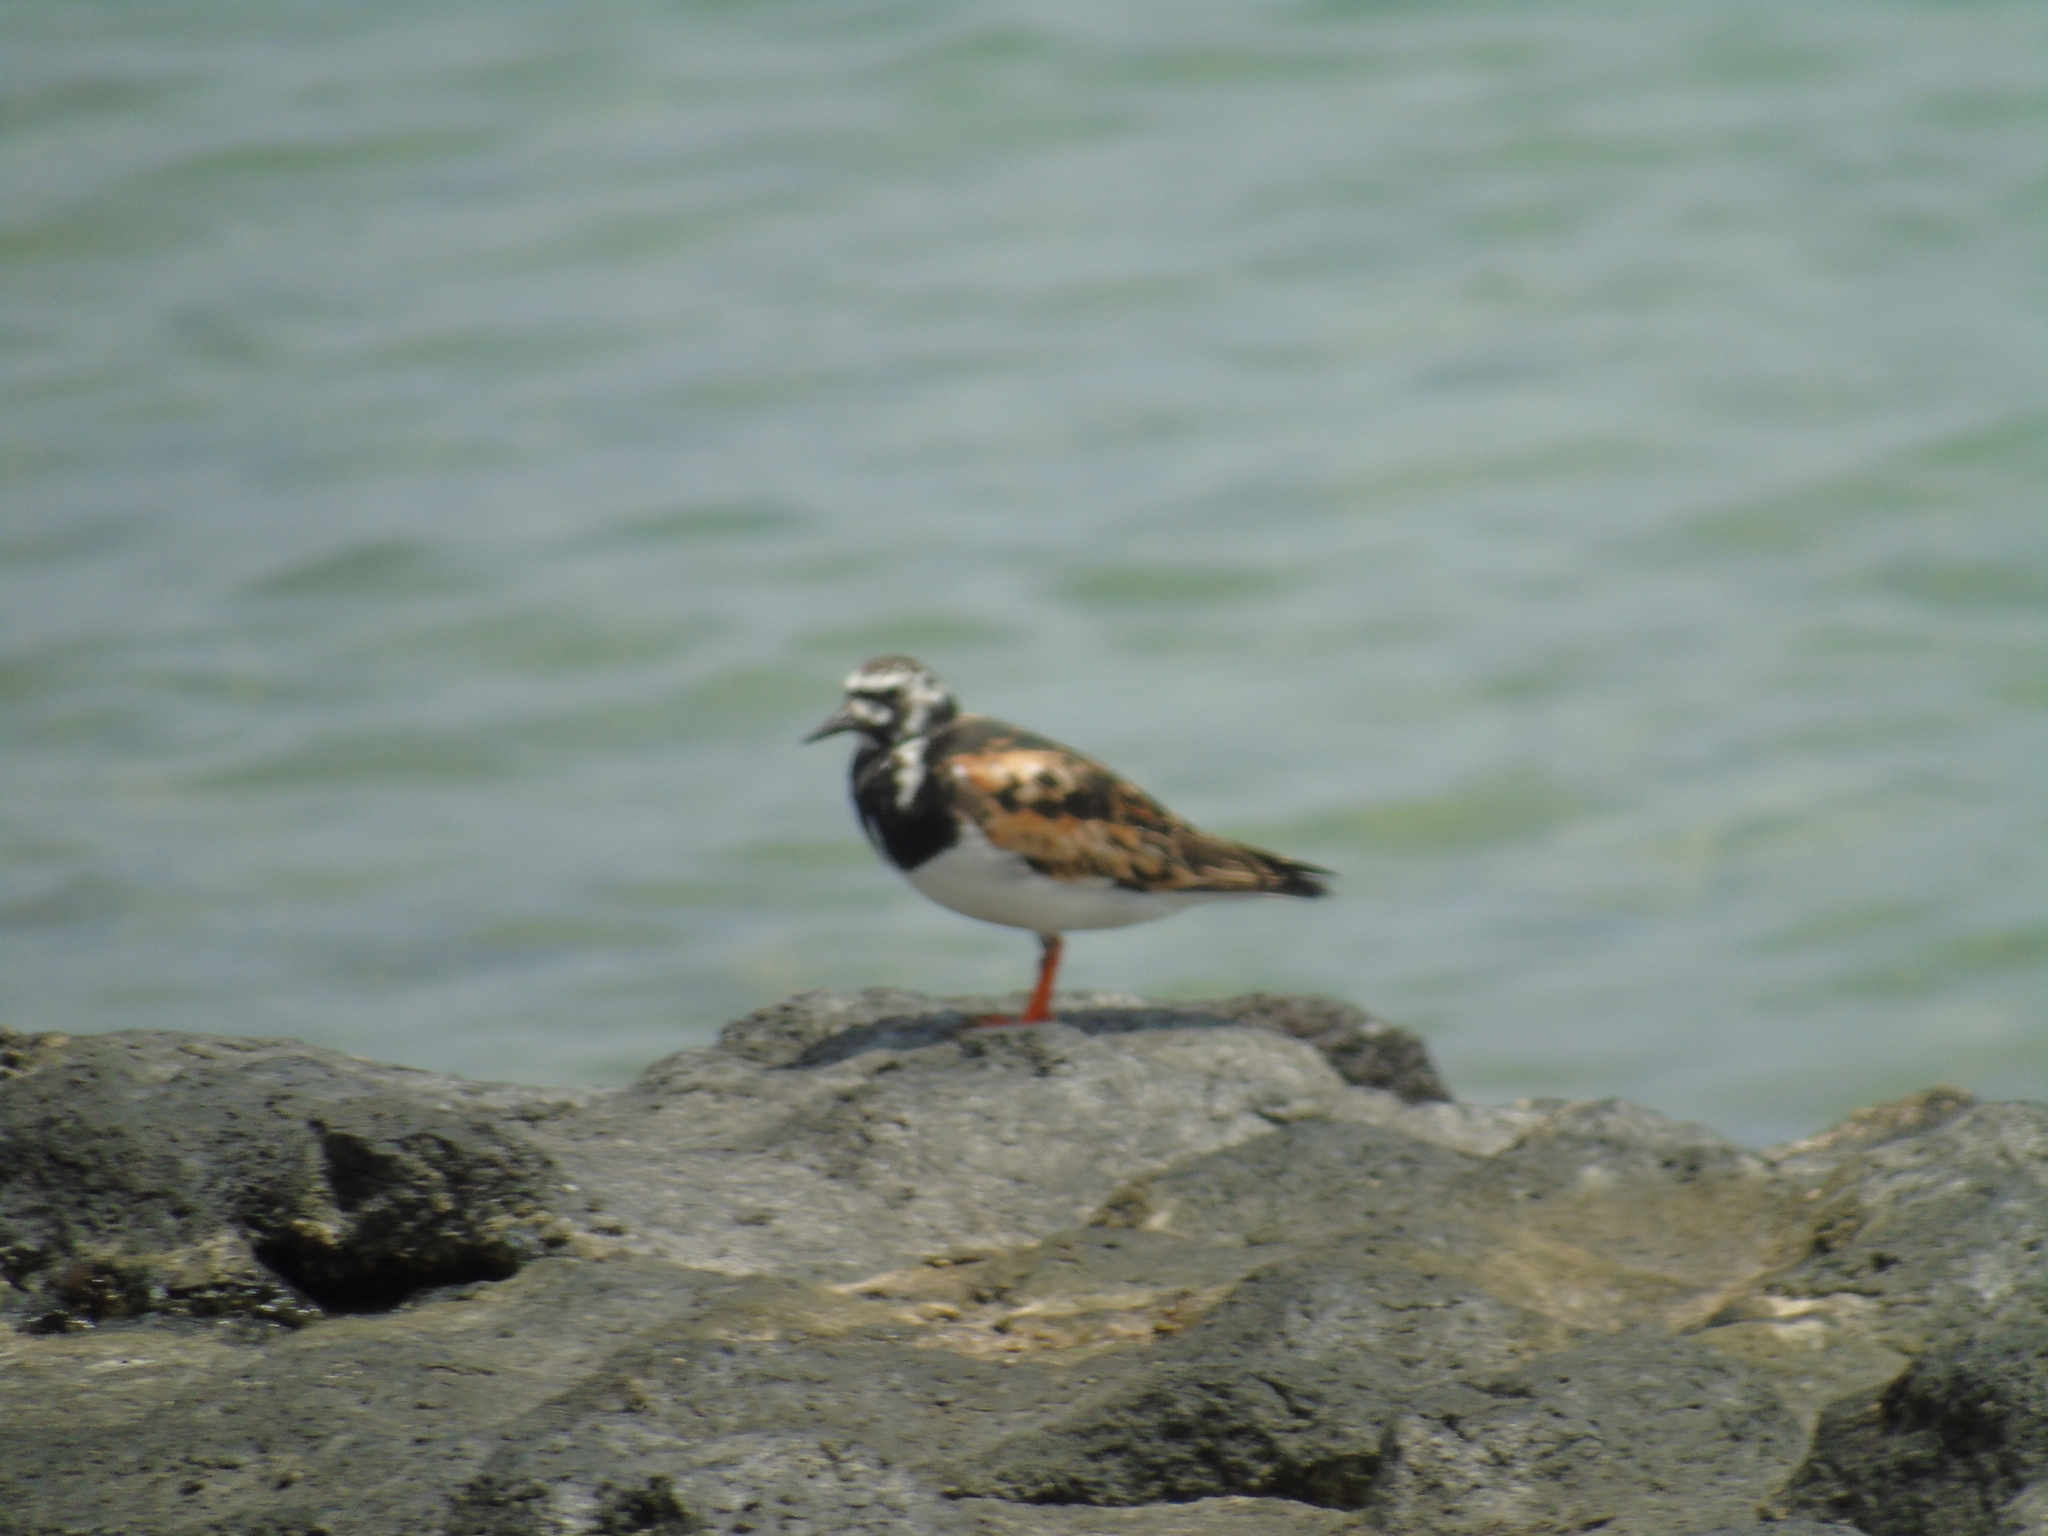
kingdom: Animalia
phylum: Chordata
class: Aves
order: Charadriiformes
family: Scolopacidae
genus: Arenaria
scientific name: Arenaria interpres
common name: Ruddy turnstone
